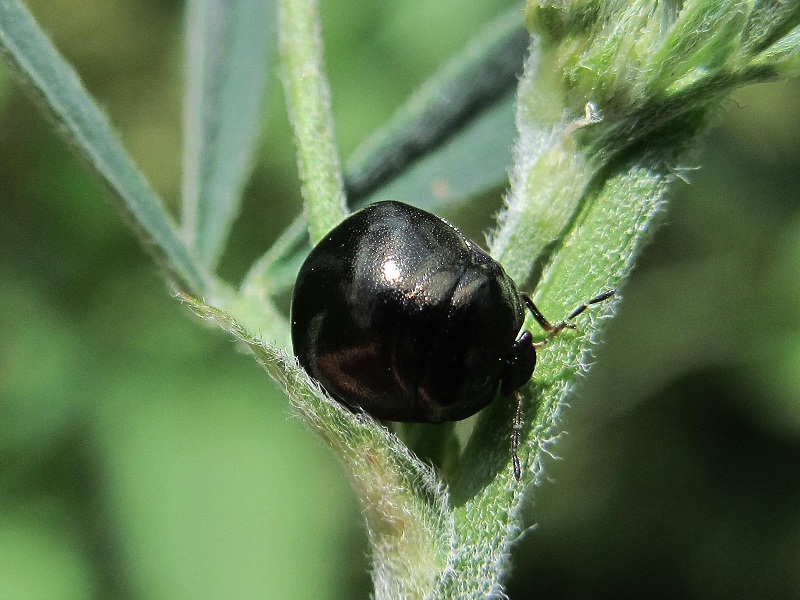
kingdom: Animalia
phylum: Arthropoda
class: Insecta
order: Hemiptera
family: Plataspidae
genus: Coptosoma
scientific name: Coptosoma scutellatum
